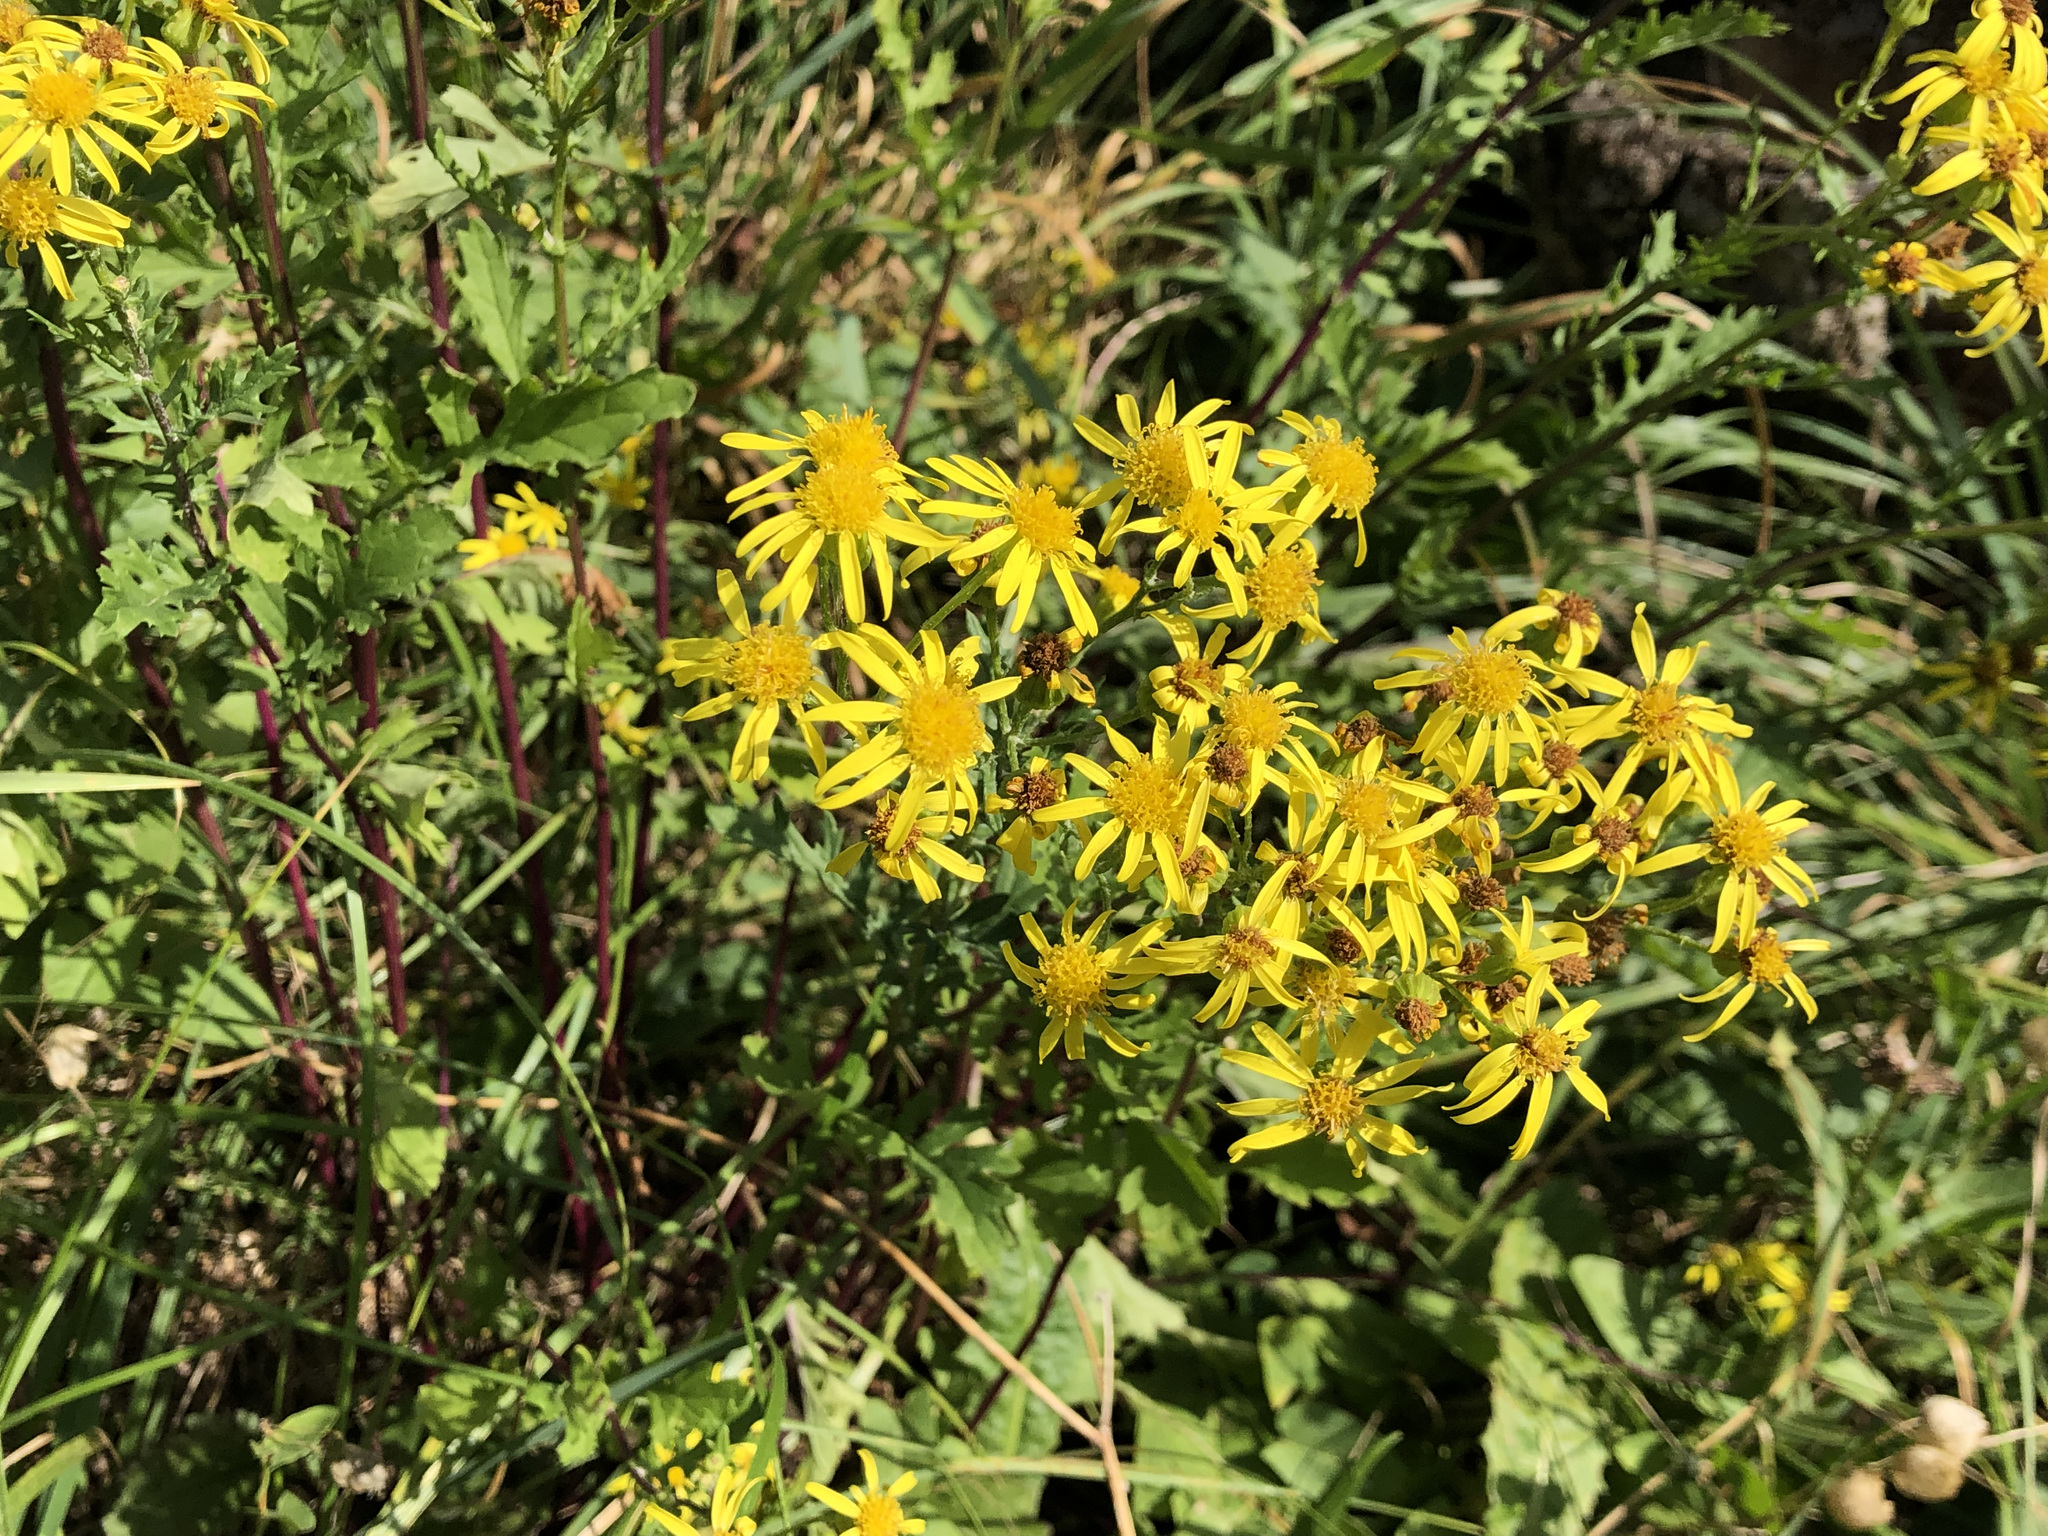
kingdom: Plantae
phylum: Tracheophyta
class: Magnoliopsida
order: Asterales
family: Asteraceae
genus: Jacobaea
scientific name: Jacobaea vulgaris
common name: Stinking willie
